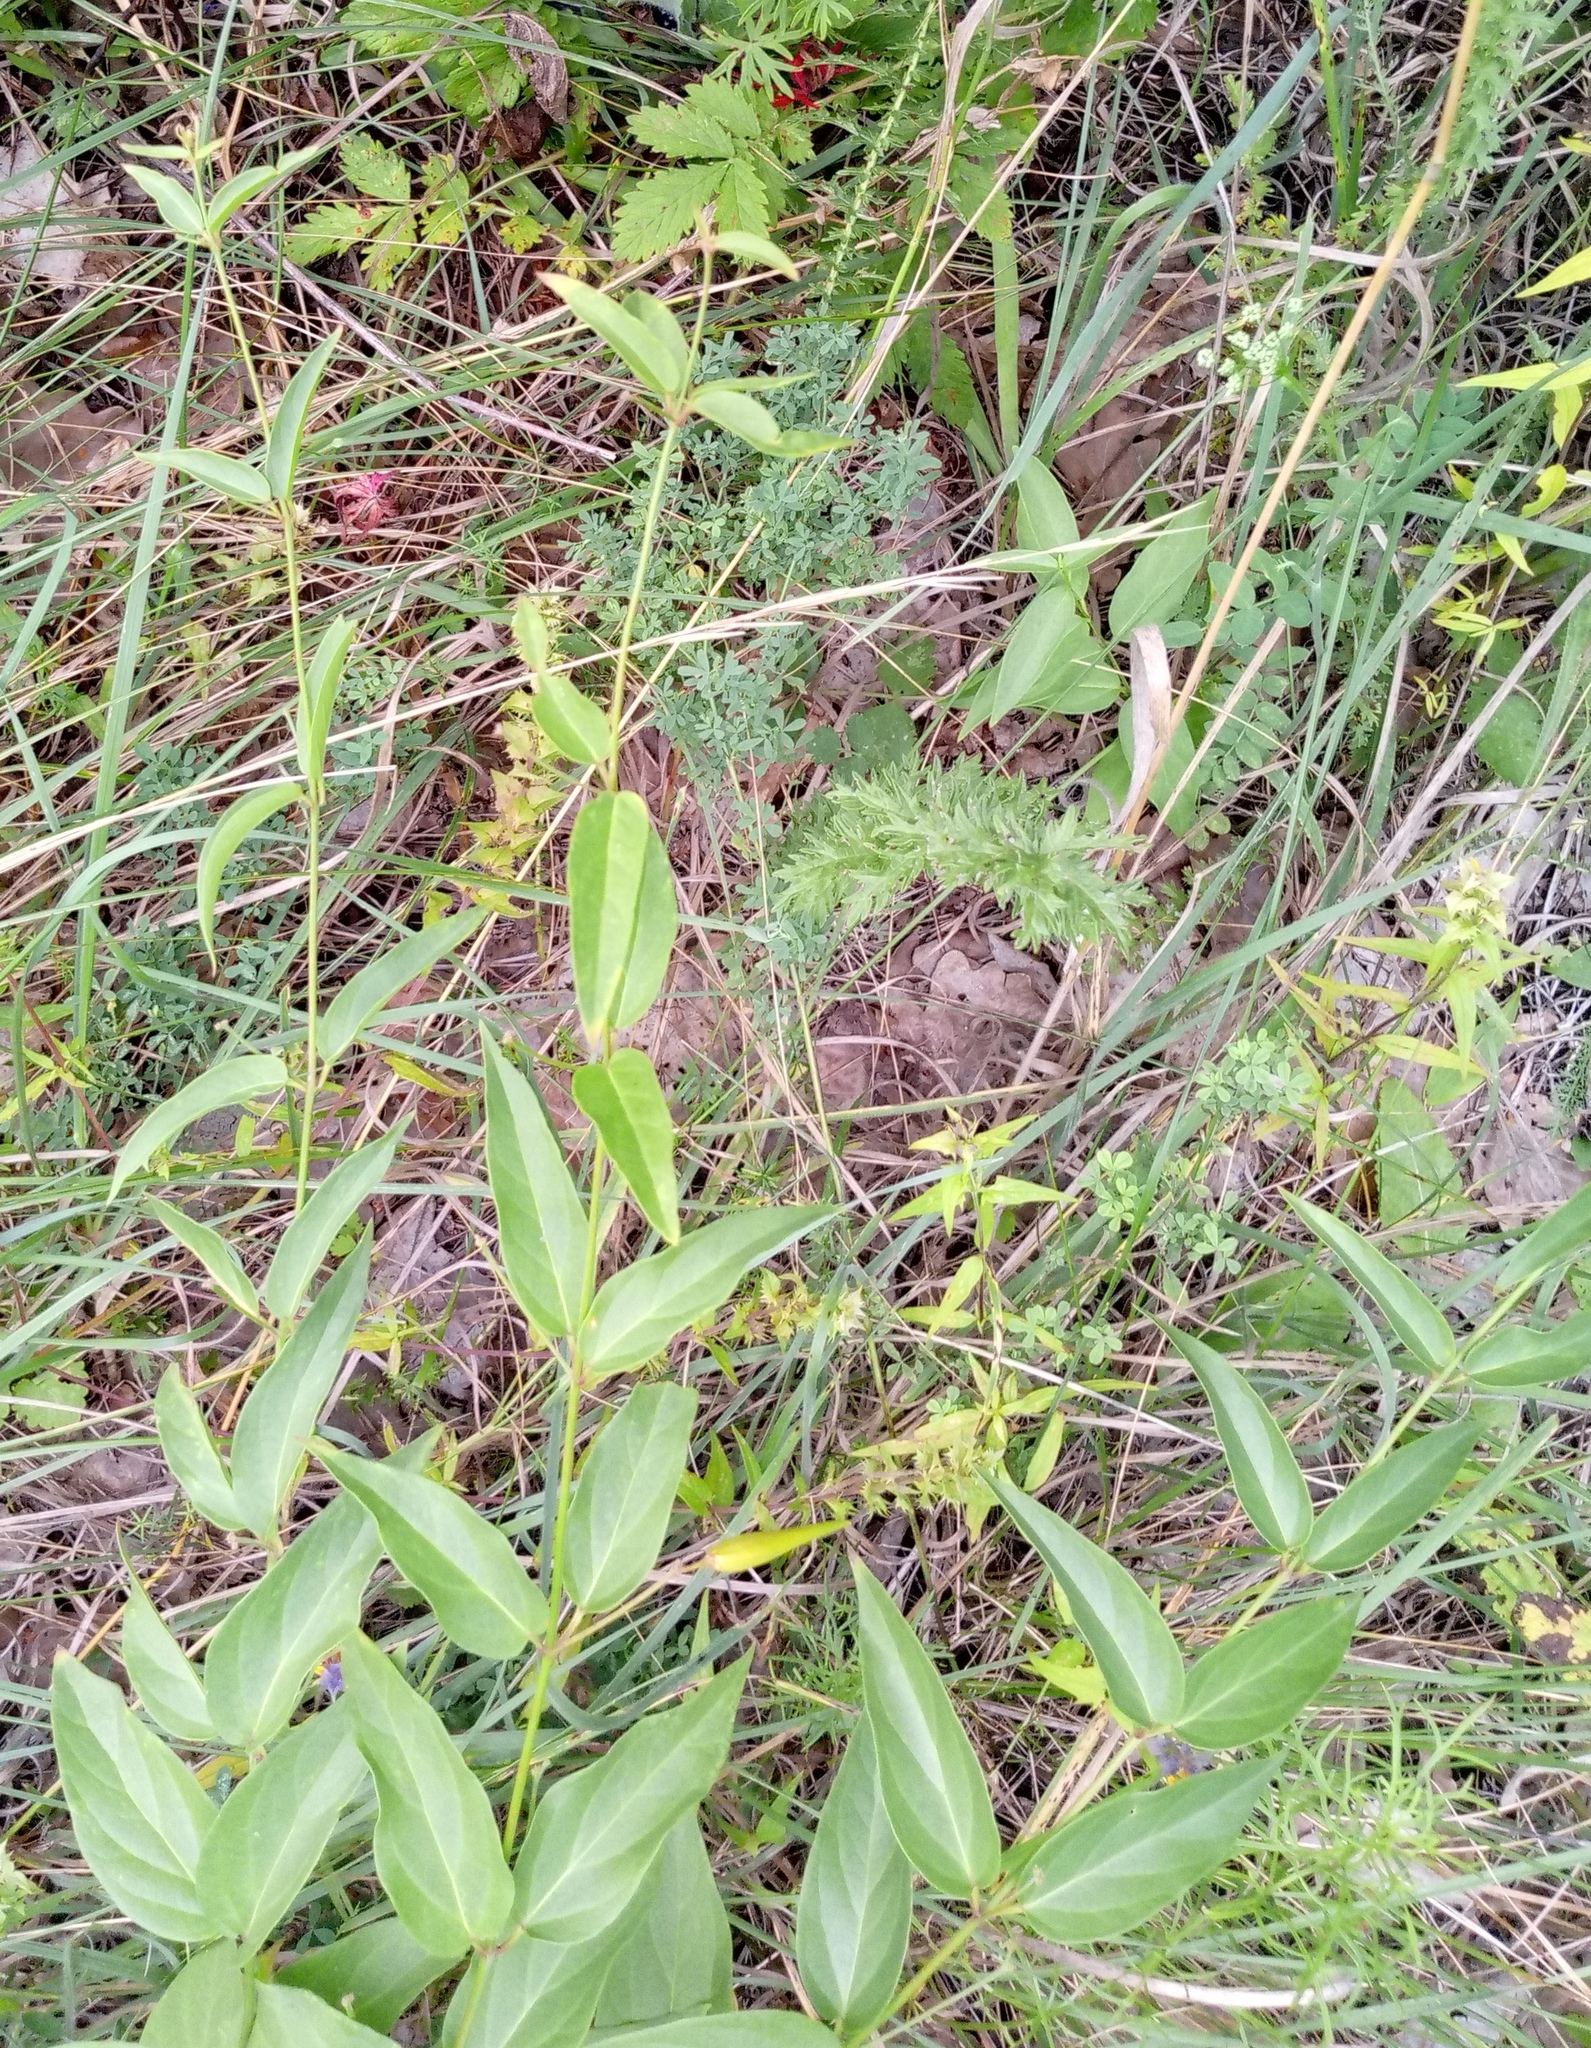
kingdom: Plantae
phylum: Tracheophyta
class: Magnoliopsida
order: Gentianales
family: Apocynaceae
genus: Vincetoxicum
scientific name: Vincetoxicum hirundinaria
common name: White swallowwort
